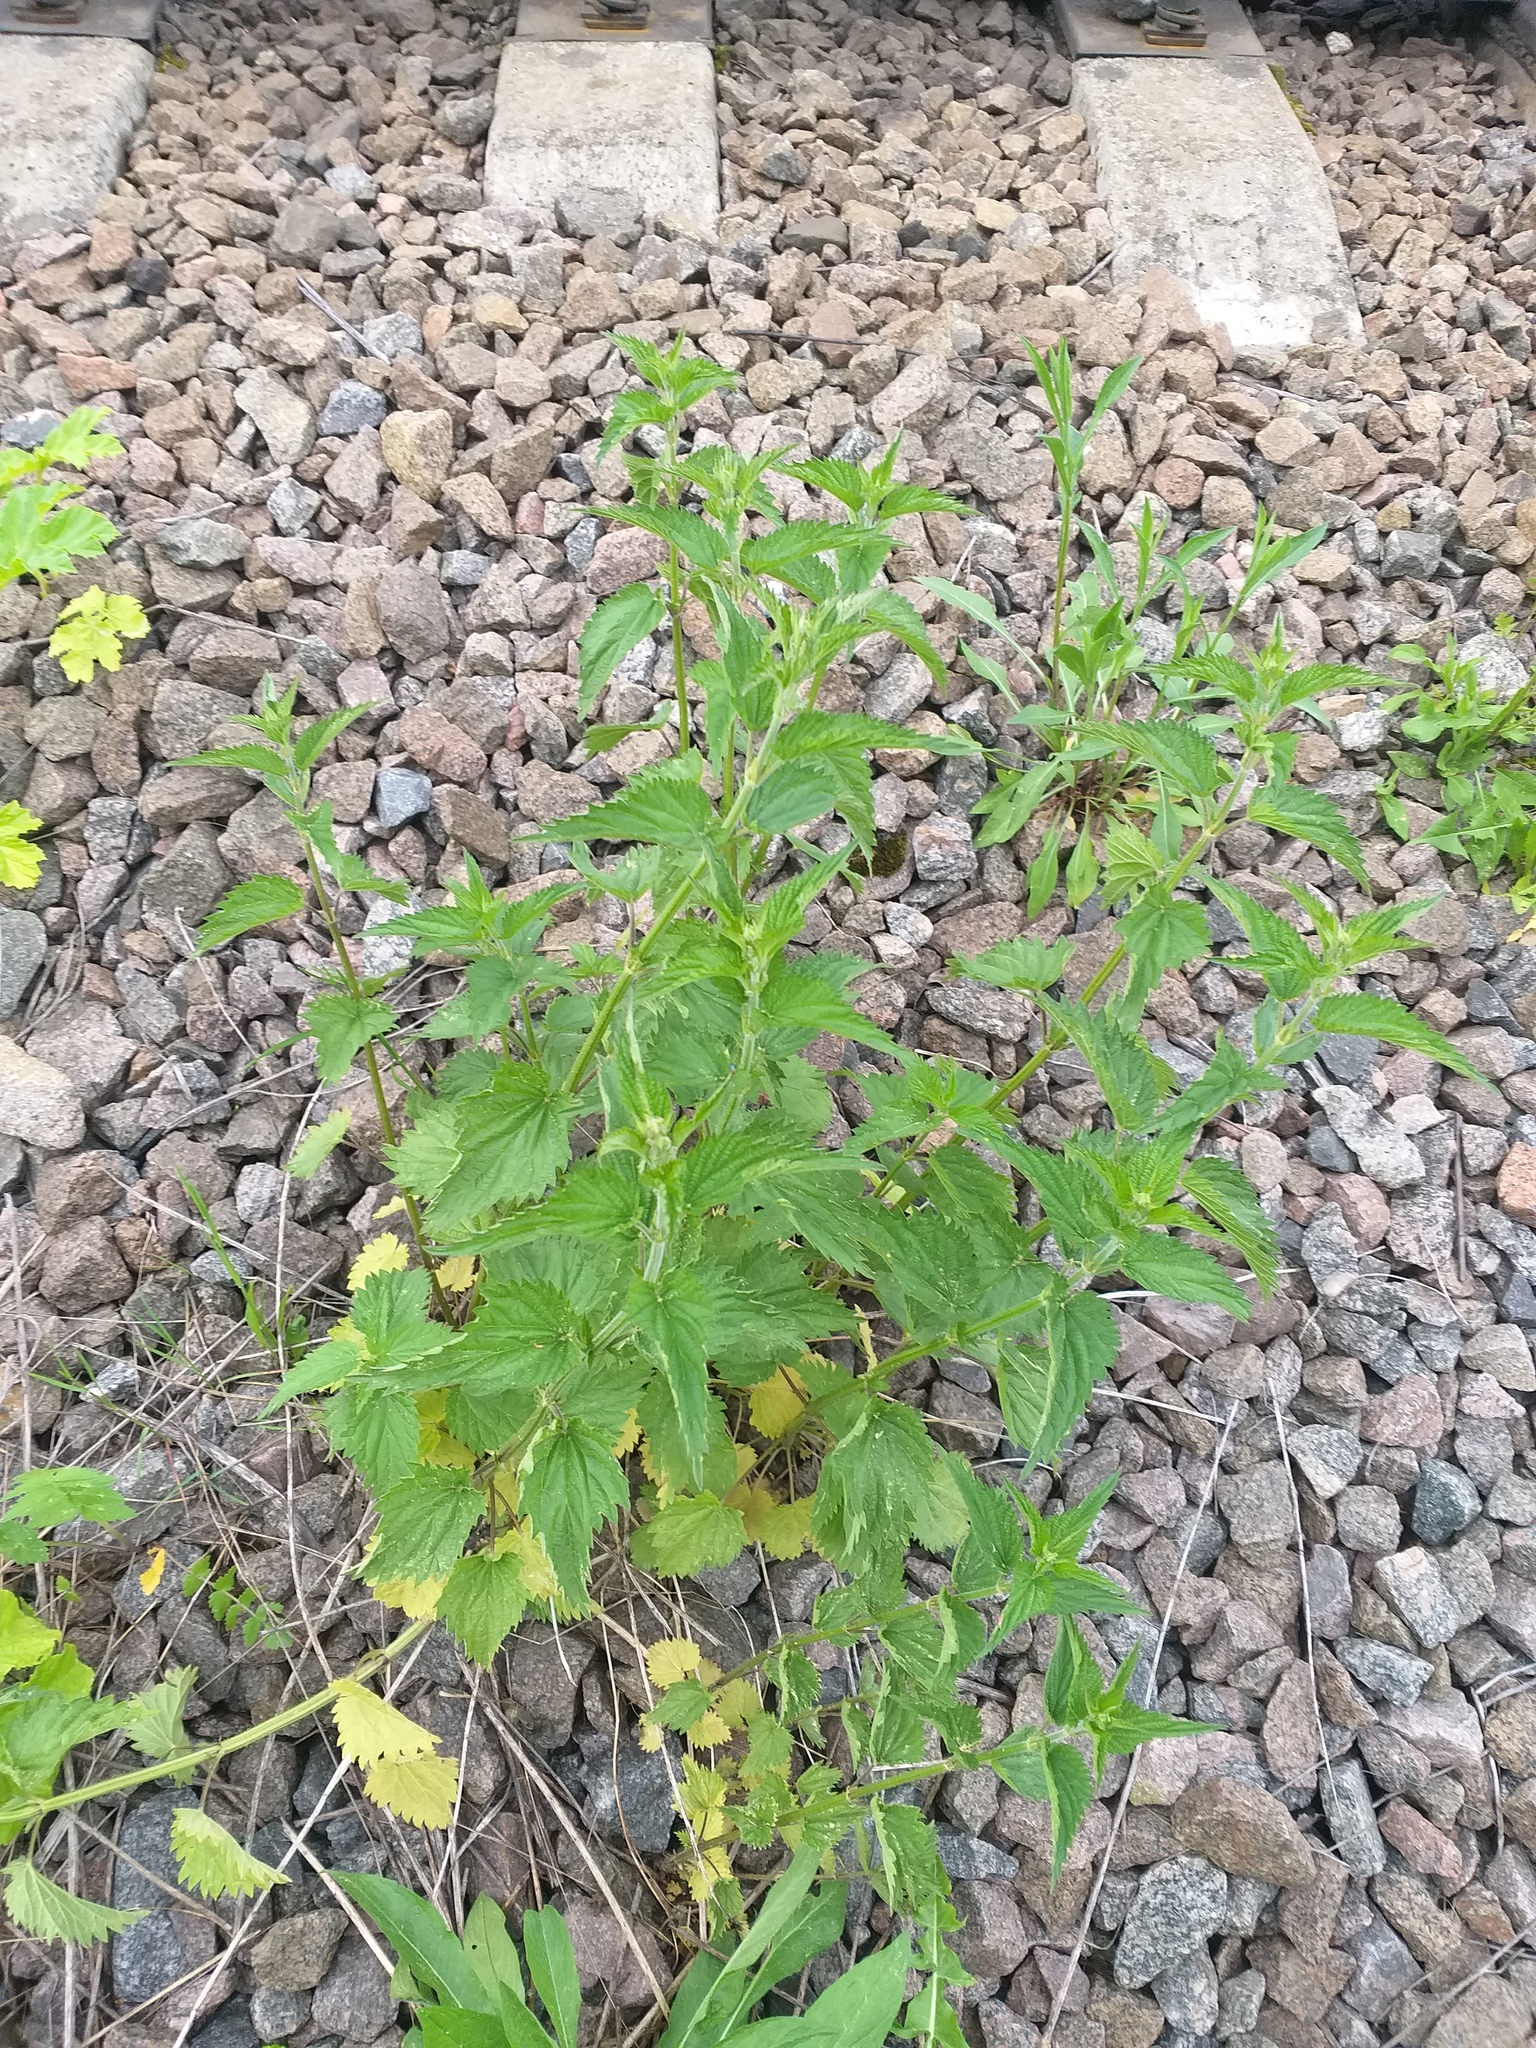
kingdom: Plantae
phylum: Tracheophyta
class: Magnoliopsida
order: Rosales
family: Urticaceae
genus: Urtica
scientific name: Urtica dioica
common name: Common nettle
